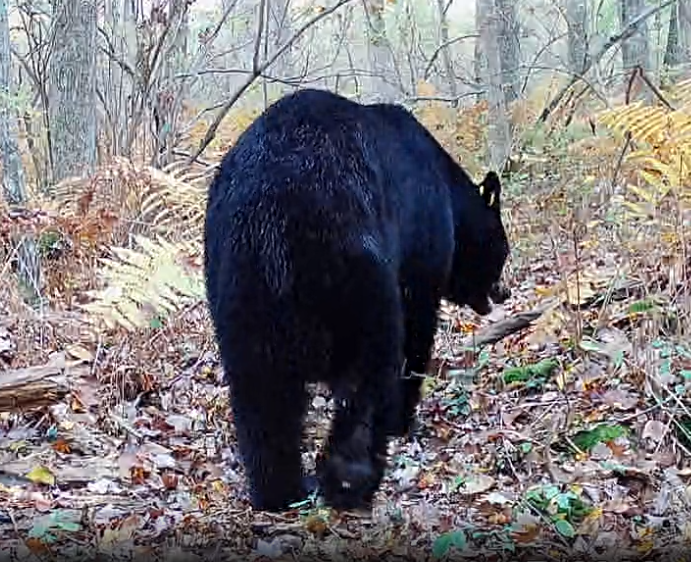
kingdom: Animalia
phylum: Chordata
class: Mammalia
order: Carnivora
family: Ursidae
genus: Ursus
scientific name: Ursus americanus
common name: American black bear
